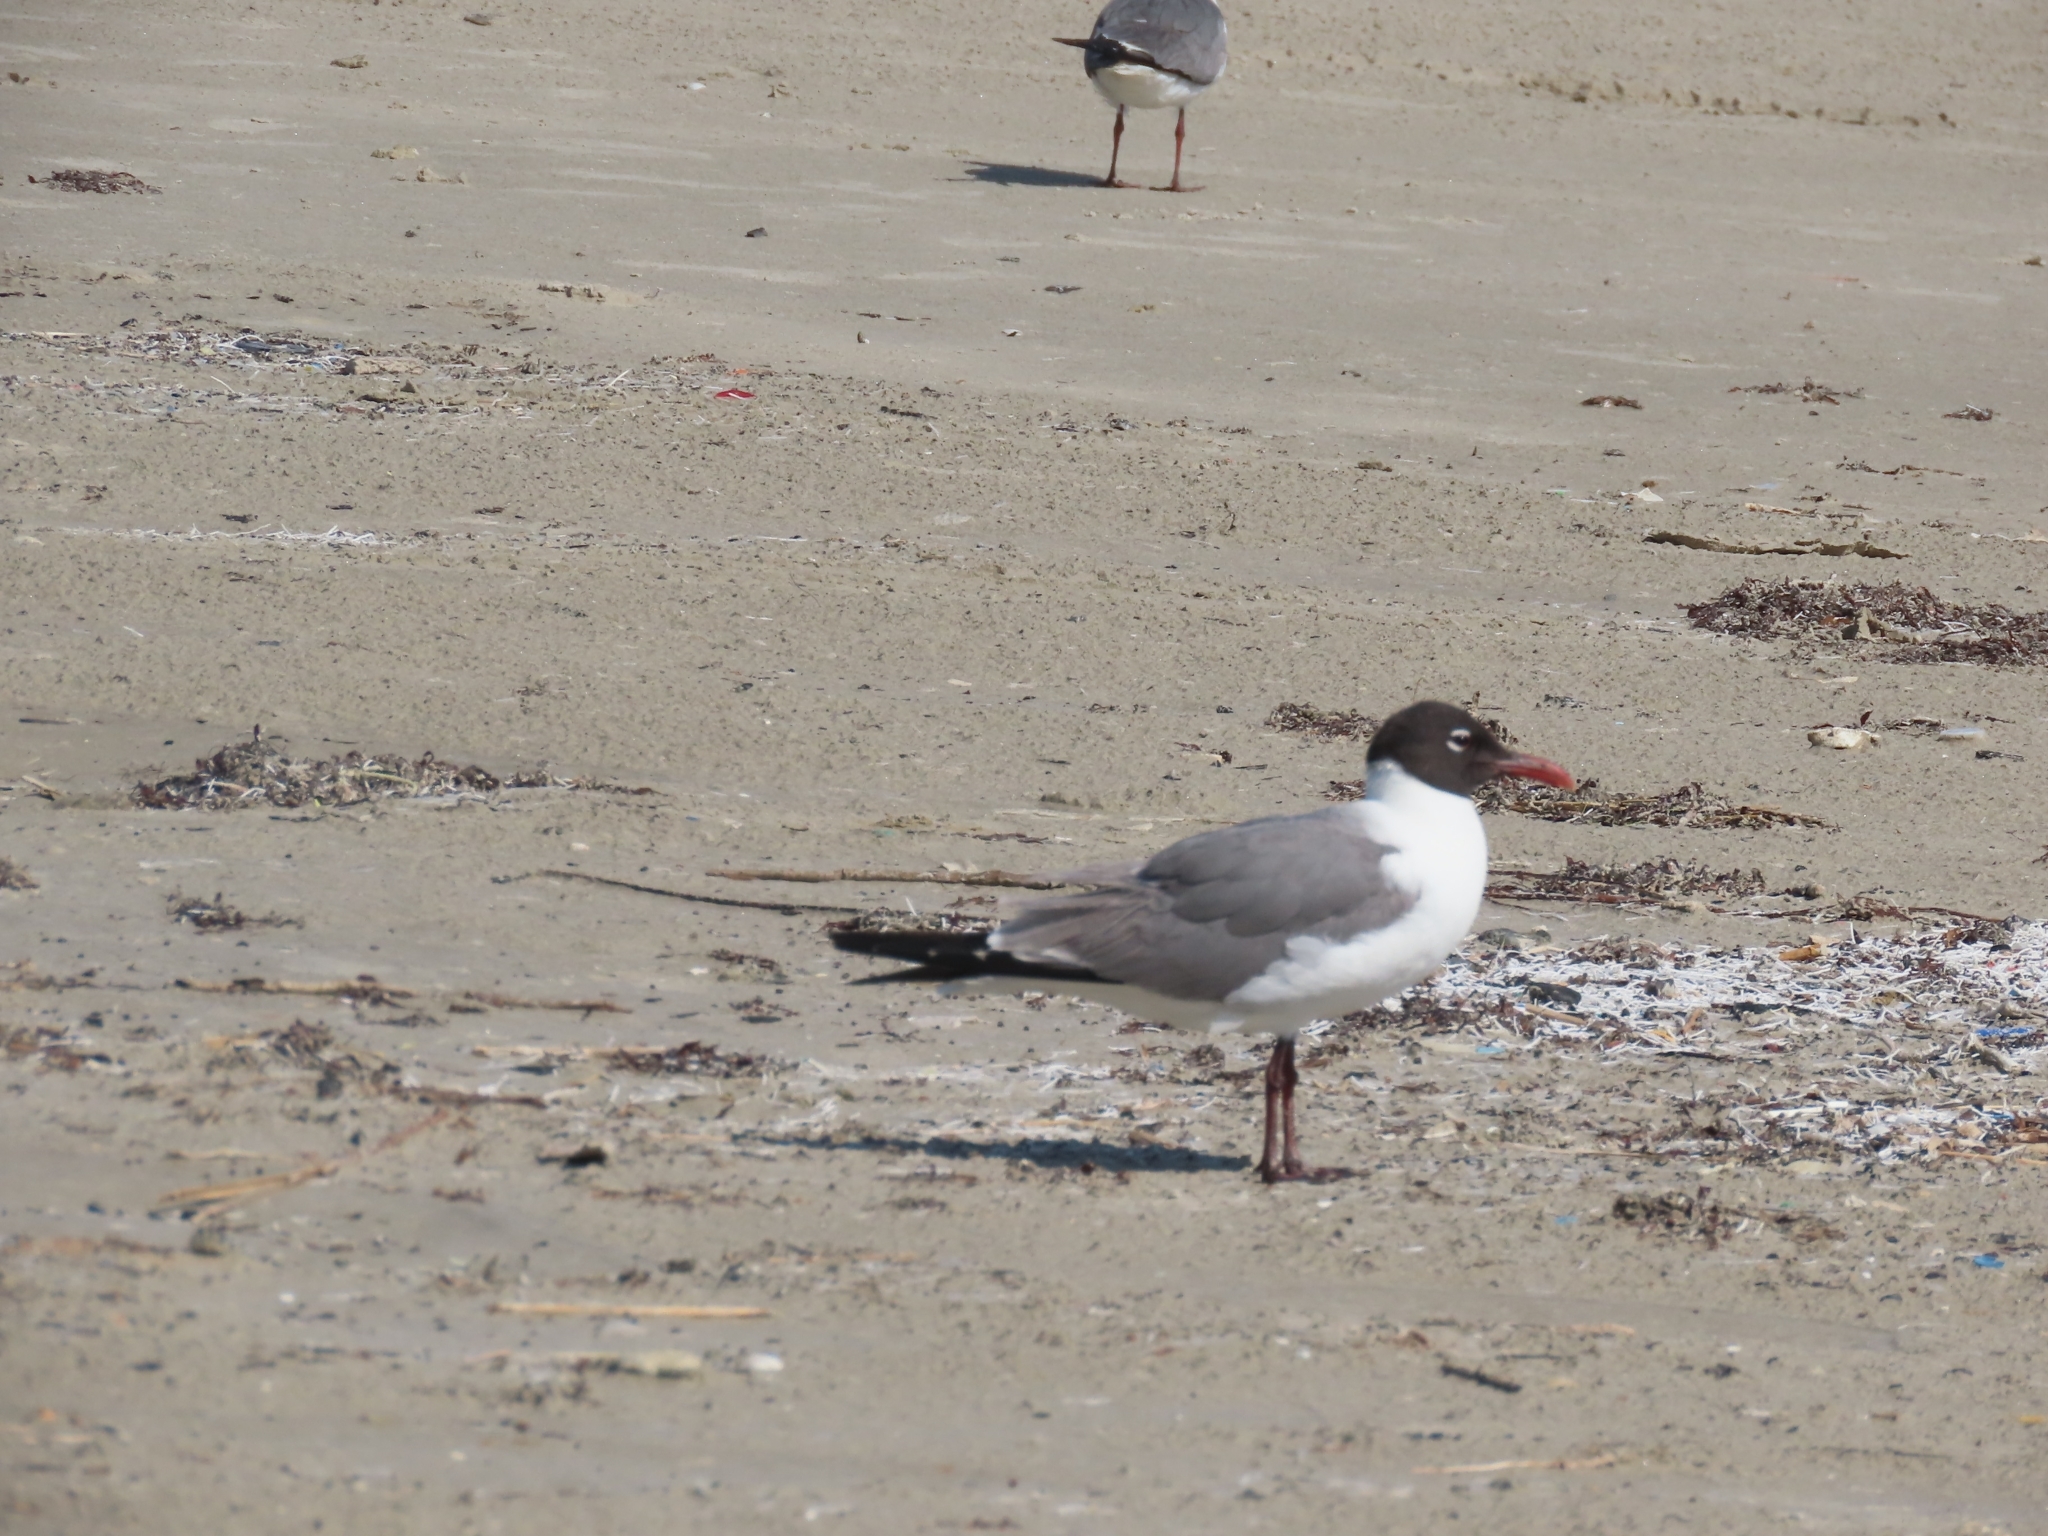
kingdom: Animalia
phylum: Chordata
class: Aves
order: Charadriiformes
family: Laridae
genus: Leucophaeus
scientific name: Leucophaeus atricilla
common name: Laughing gull
